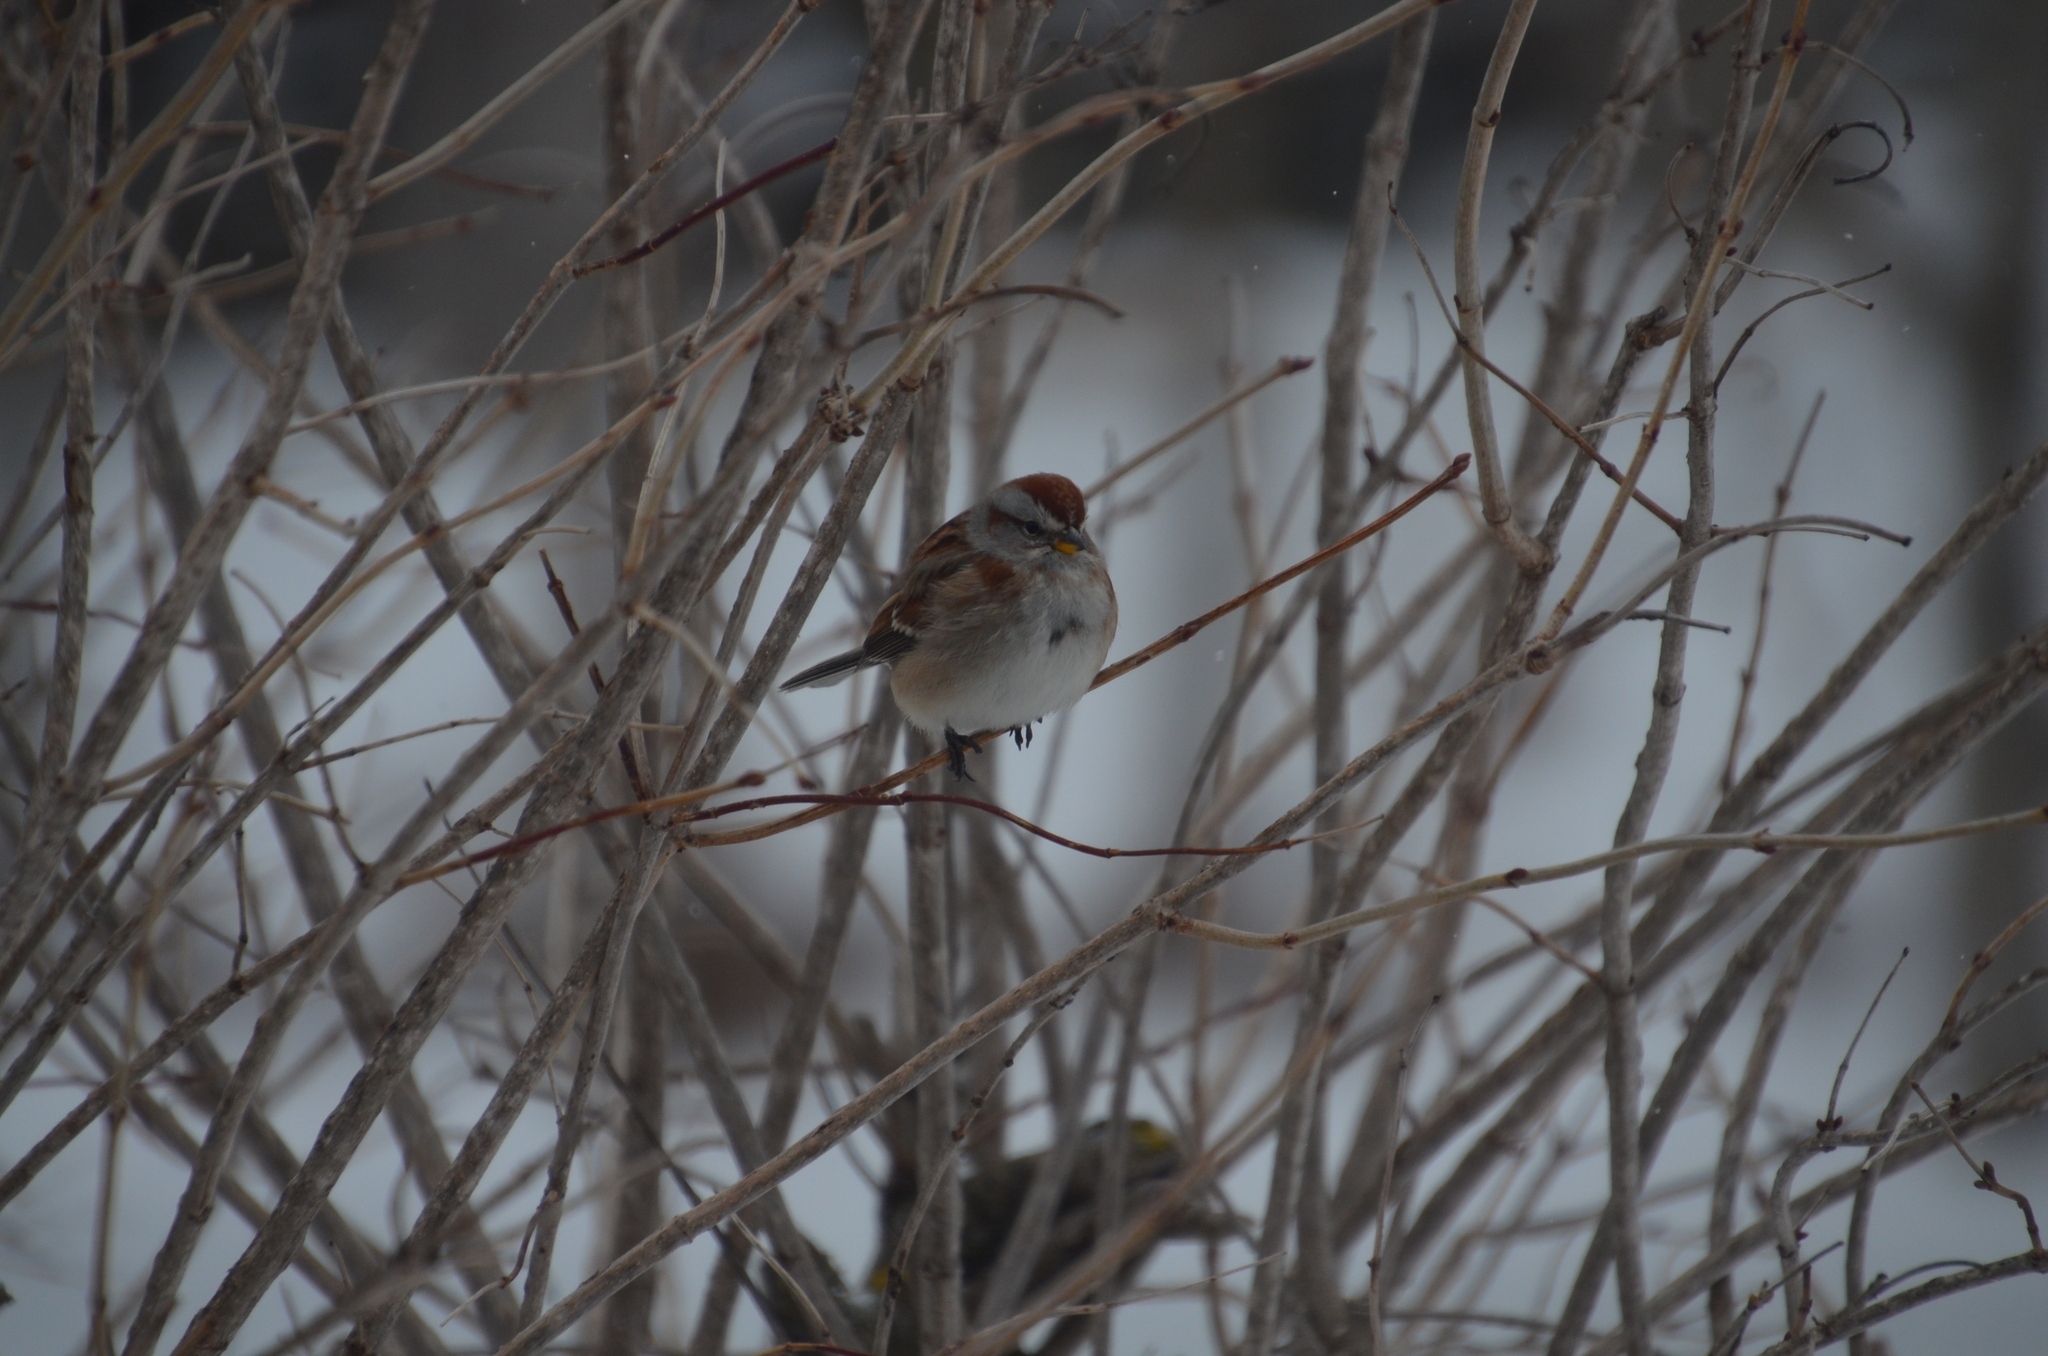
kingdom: Animalia
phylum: Chordata
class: Aves
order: Passeriformes
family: Passerellidae
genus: Spizelloides
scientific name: Spizelloides arborea
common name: American tree sparrow
